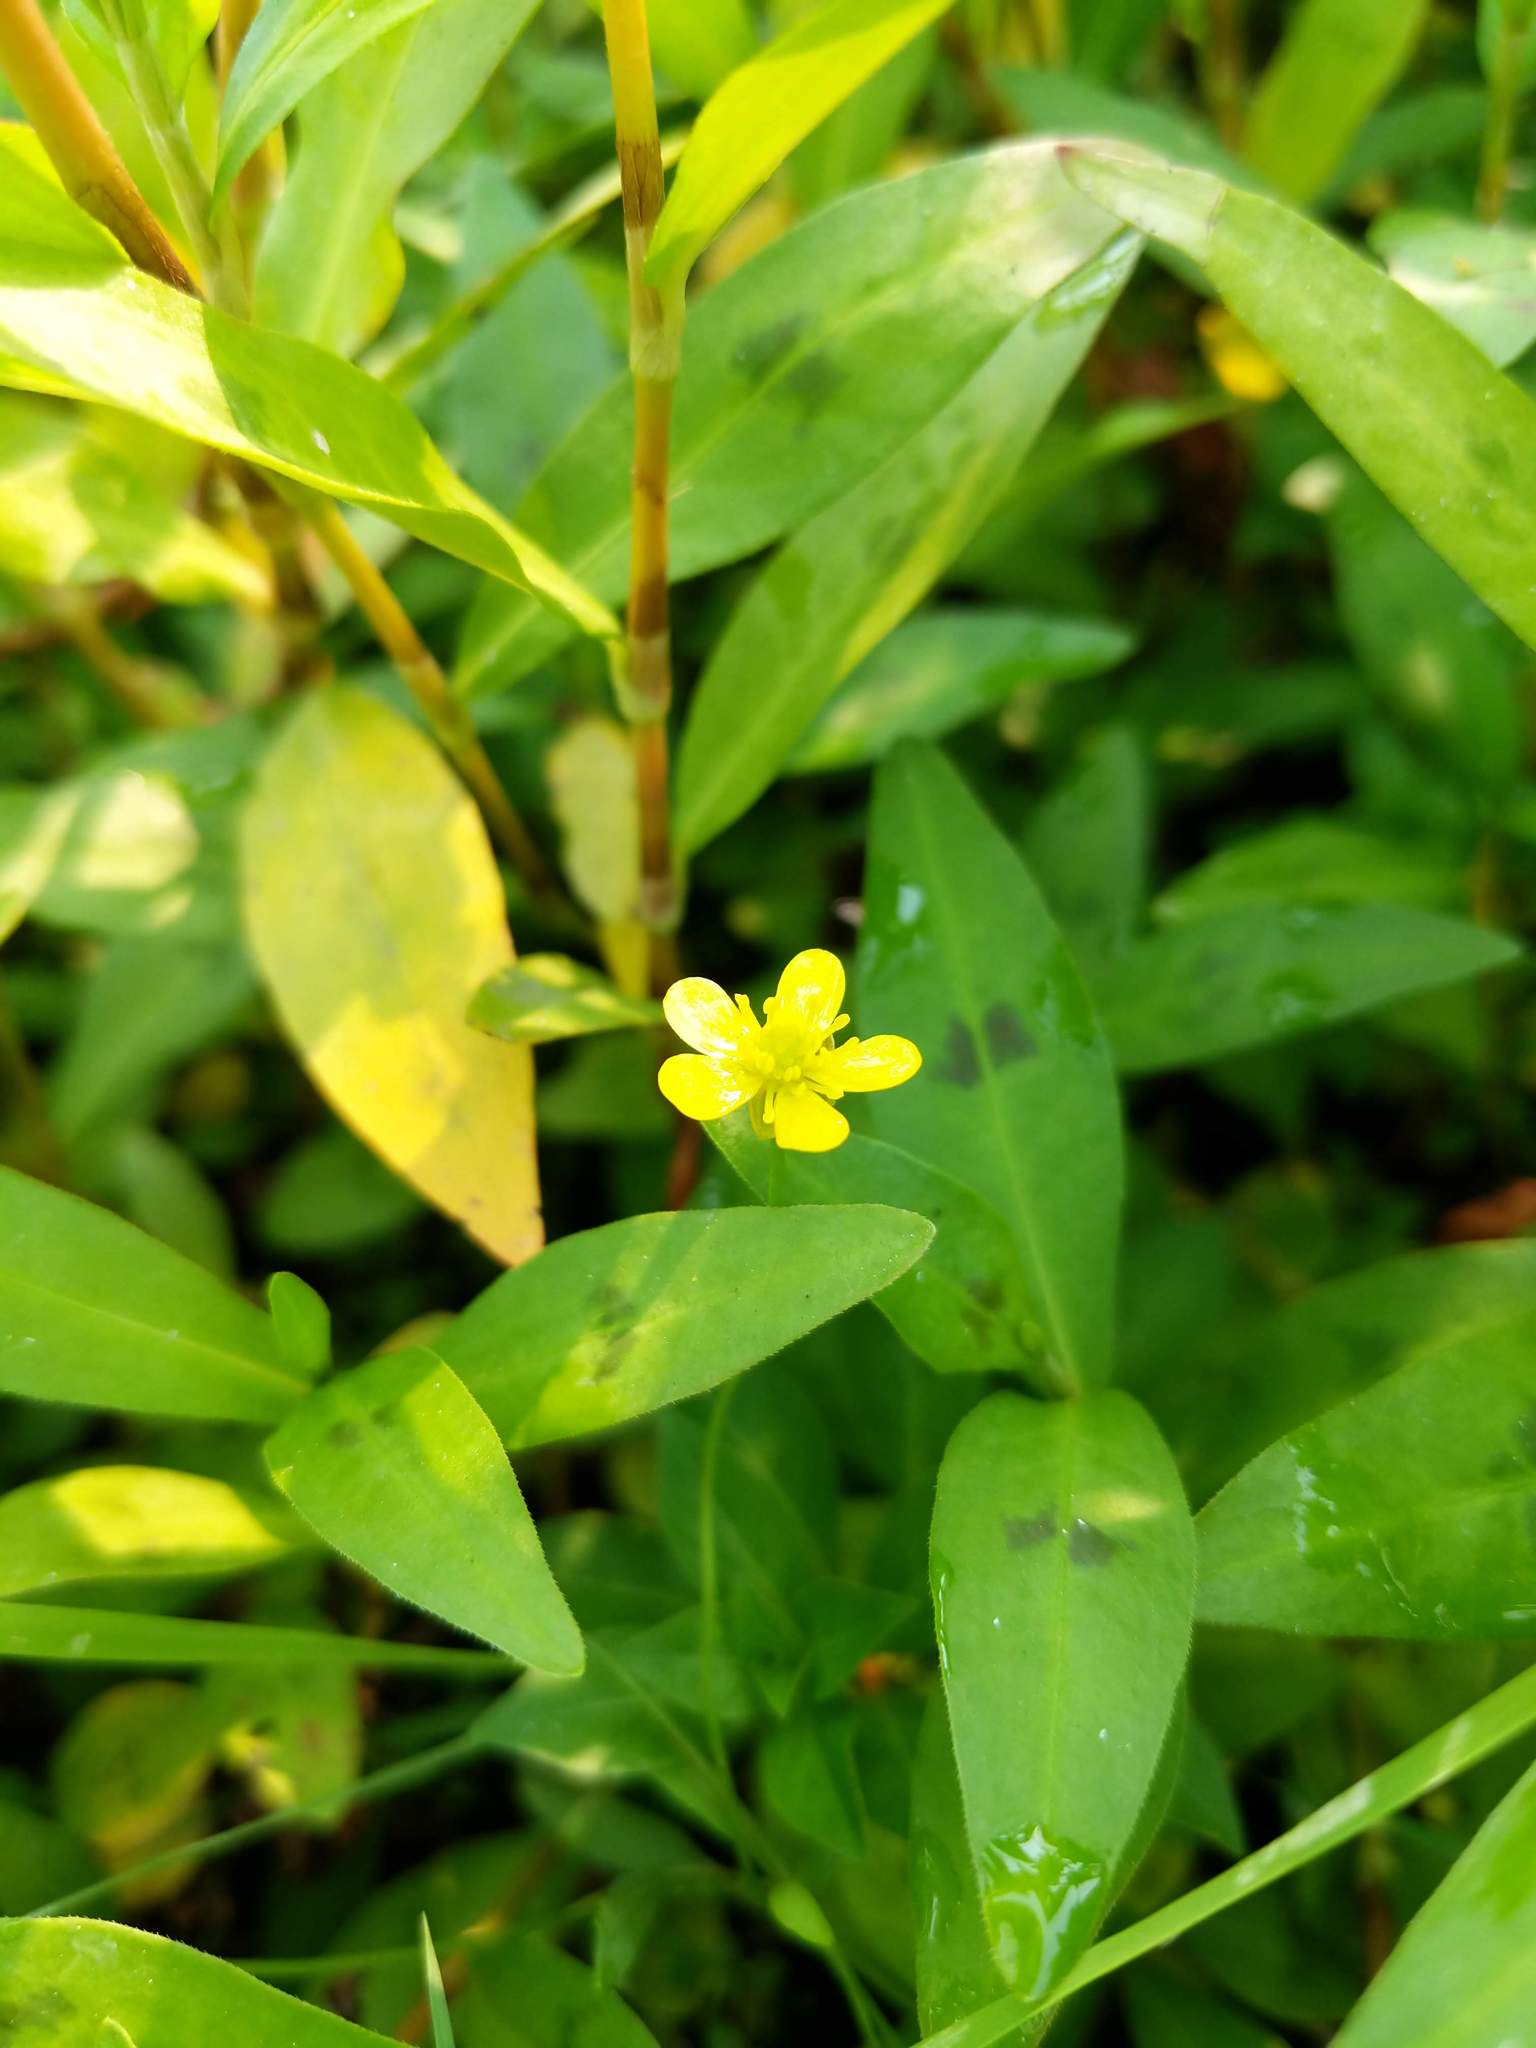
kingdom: Plantae
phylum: Tracheophyta
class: Magnoliopsida
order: Ranunculales
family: Ranunculaceae
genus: Ranunculus
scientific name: Ranunculus flammula
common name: Lesser spearwort
